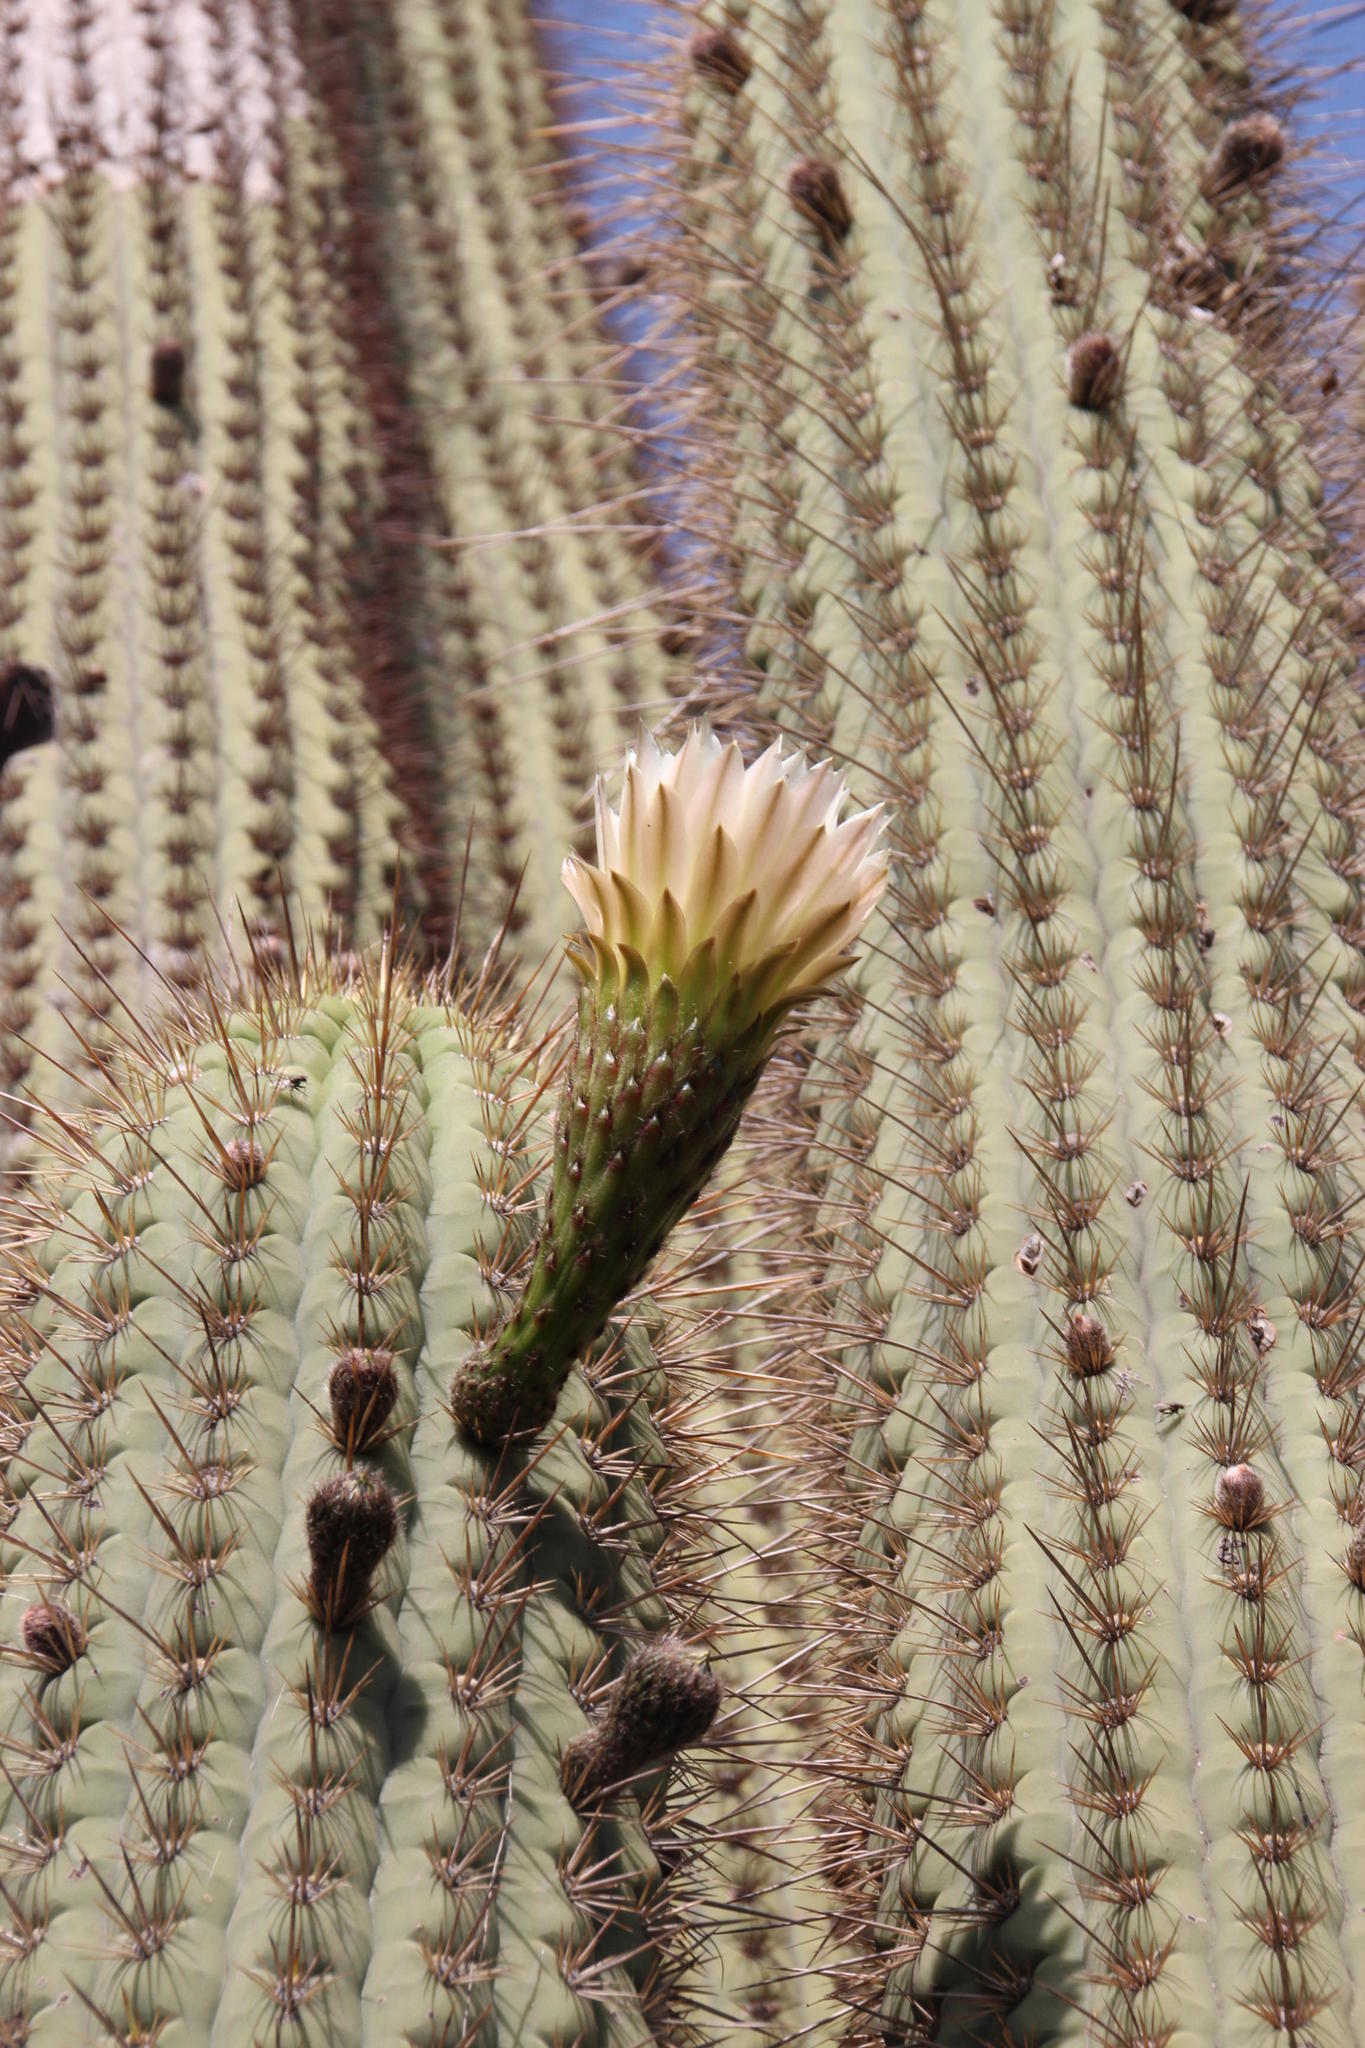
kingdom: Plantae
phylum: Tracheophyta
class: Magnoliopsida
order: Caryophyllales
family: Cactaceae
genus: Leucostele
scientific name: Leucostele chiloensis
